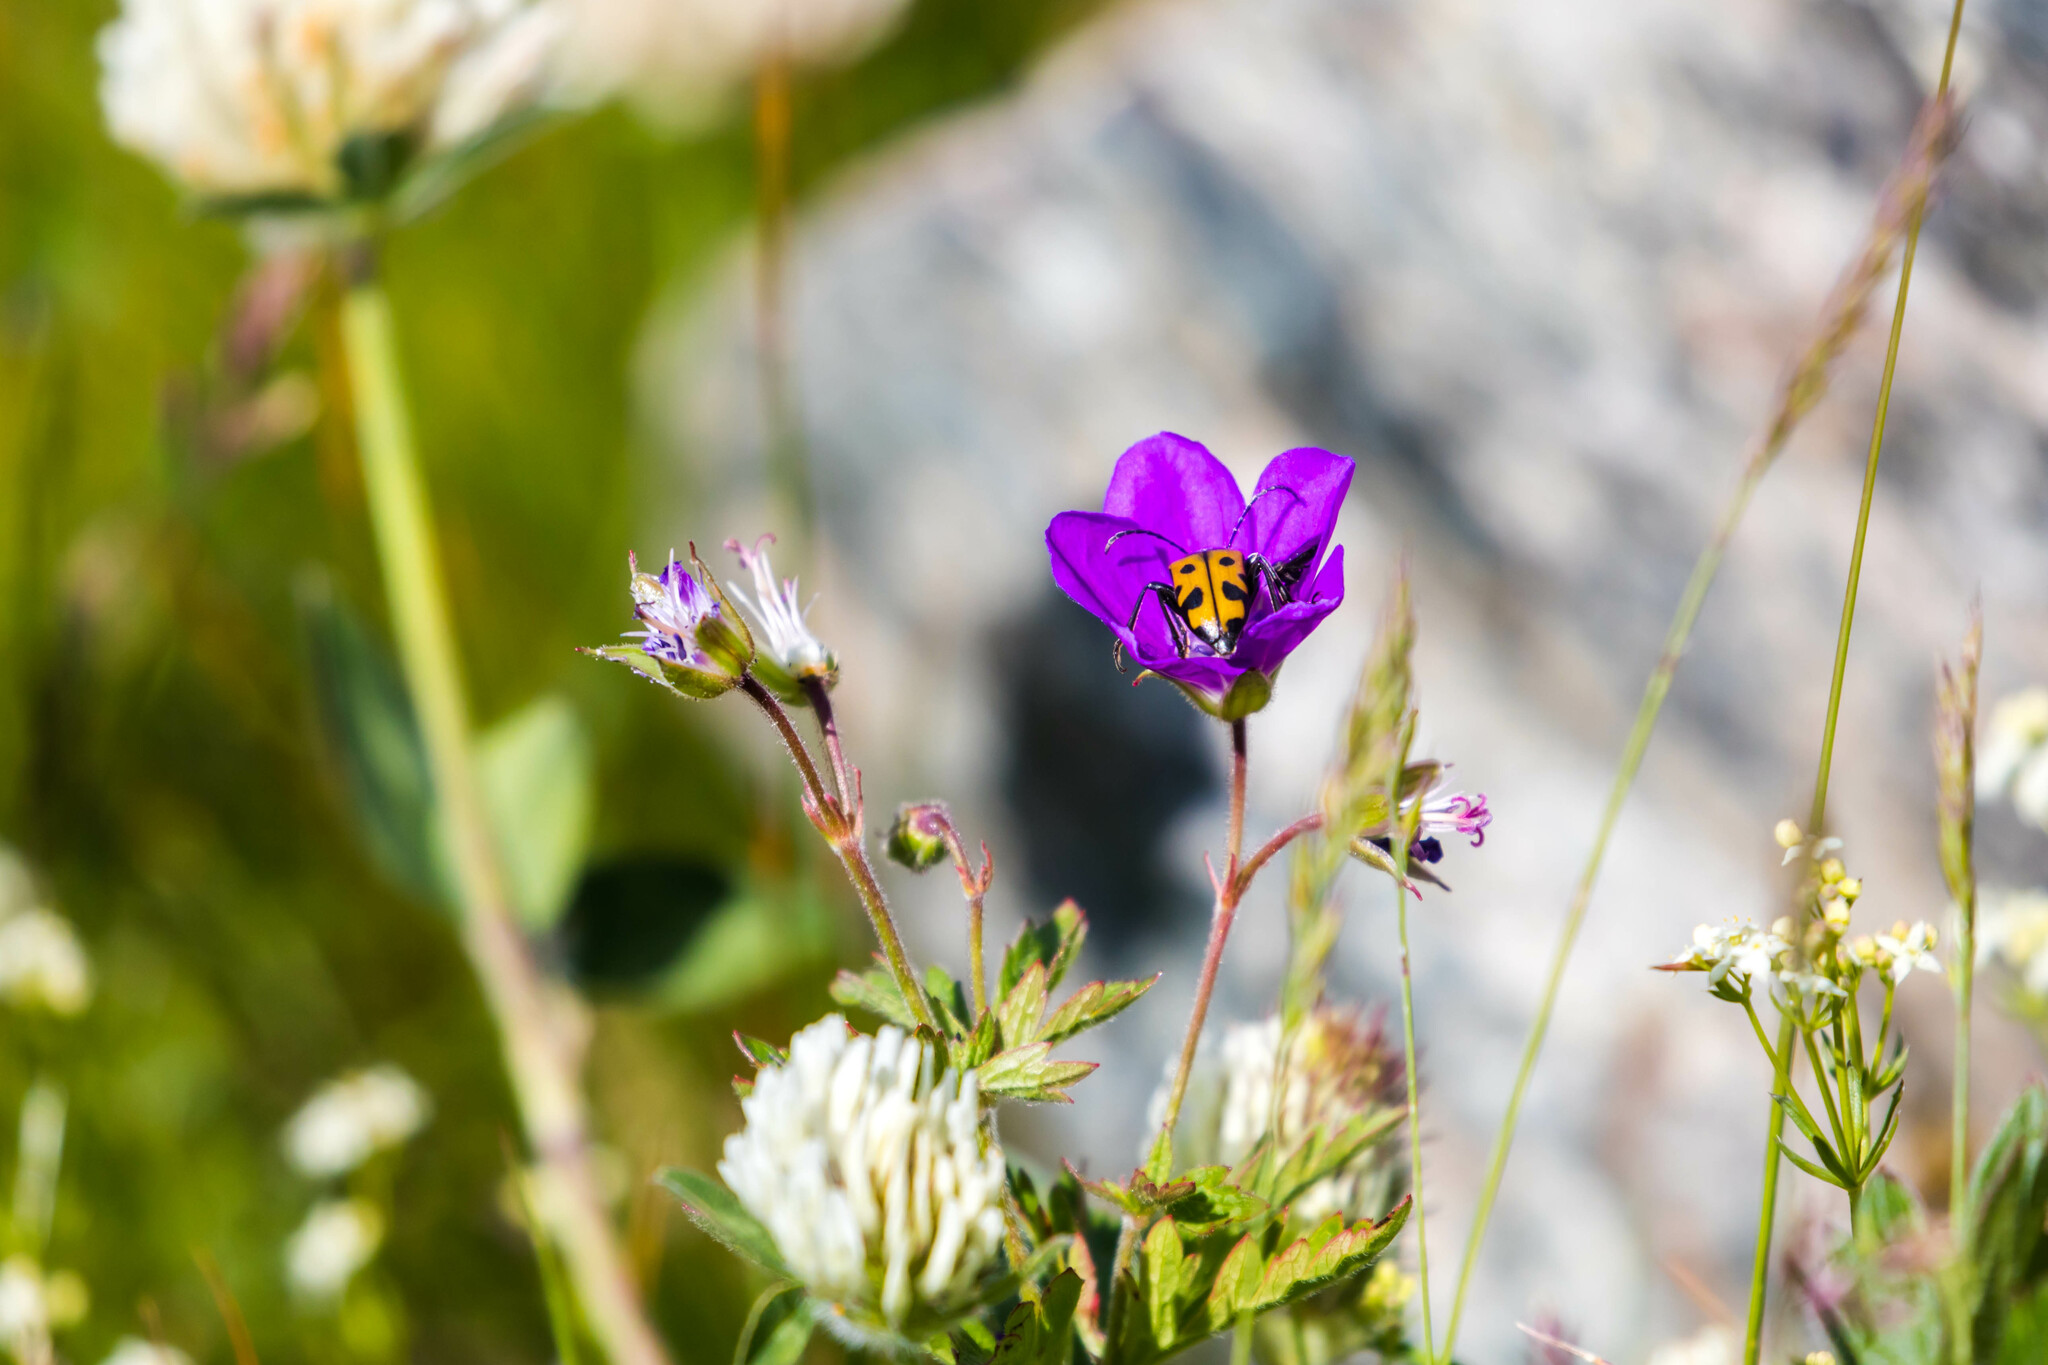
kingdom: Animalia
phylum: Arthropoda
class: Insecta
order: Coleoptera
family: Cerambycidae
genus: Brachyta
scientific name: Brachyta interrogationis
